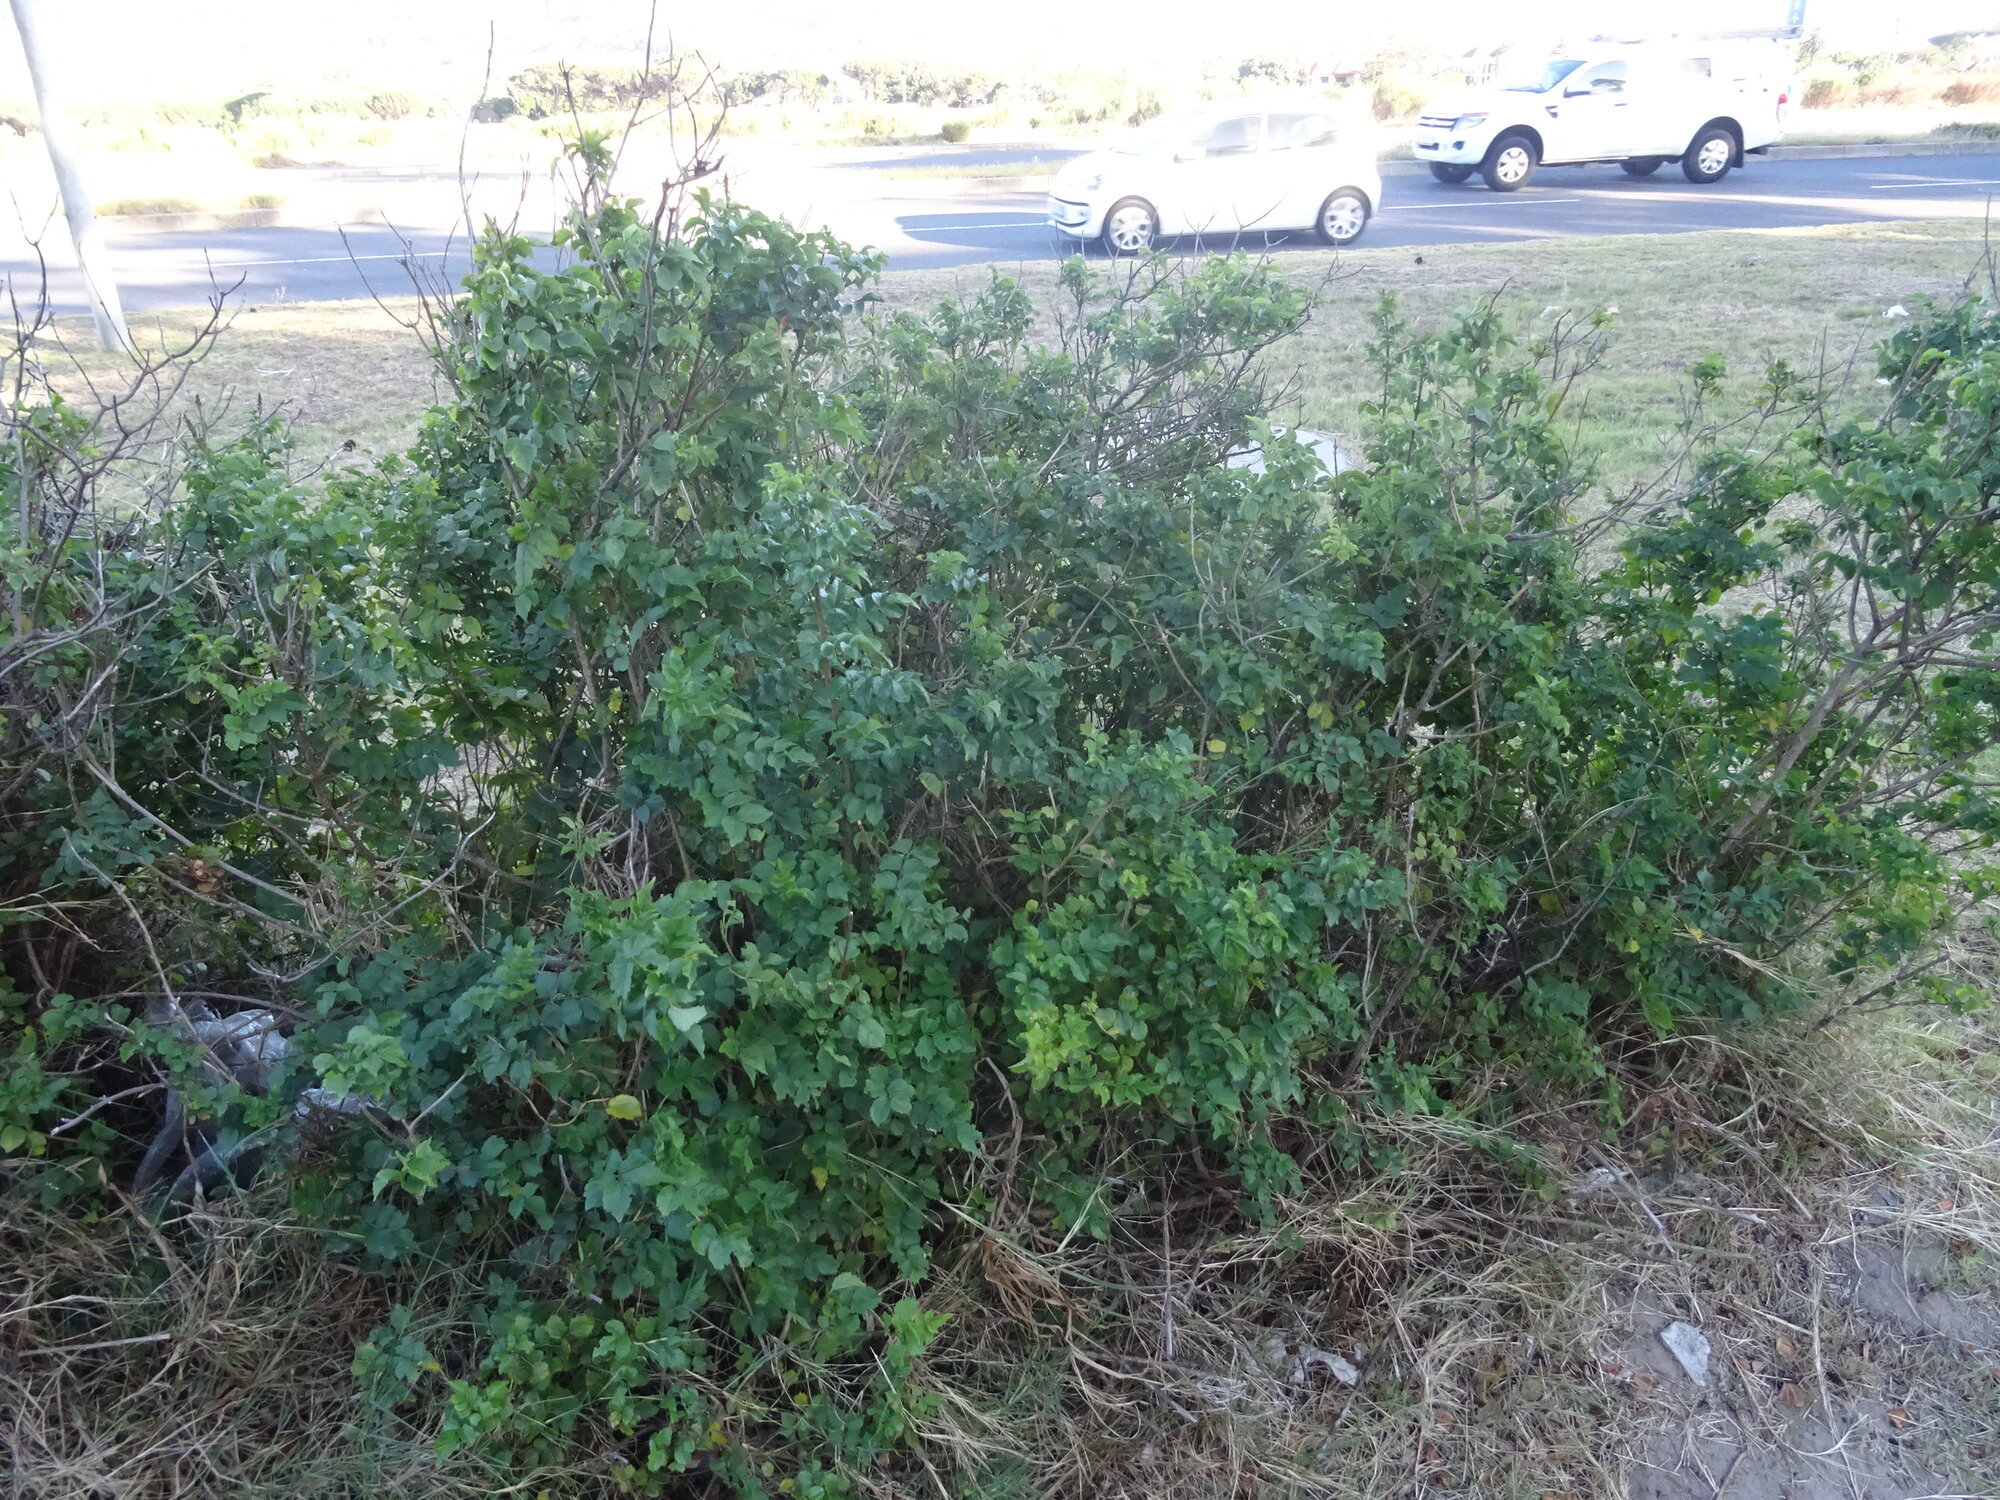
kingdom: Plantae
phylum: Tracheophyta
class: Magnoliopsida
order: Lamiales
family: Bignoniaceae
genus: Tecomaria
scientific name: Tecomaria capensis
